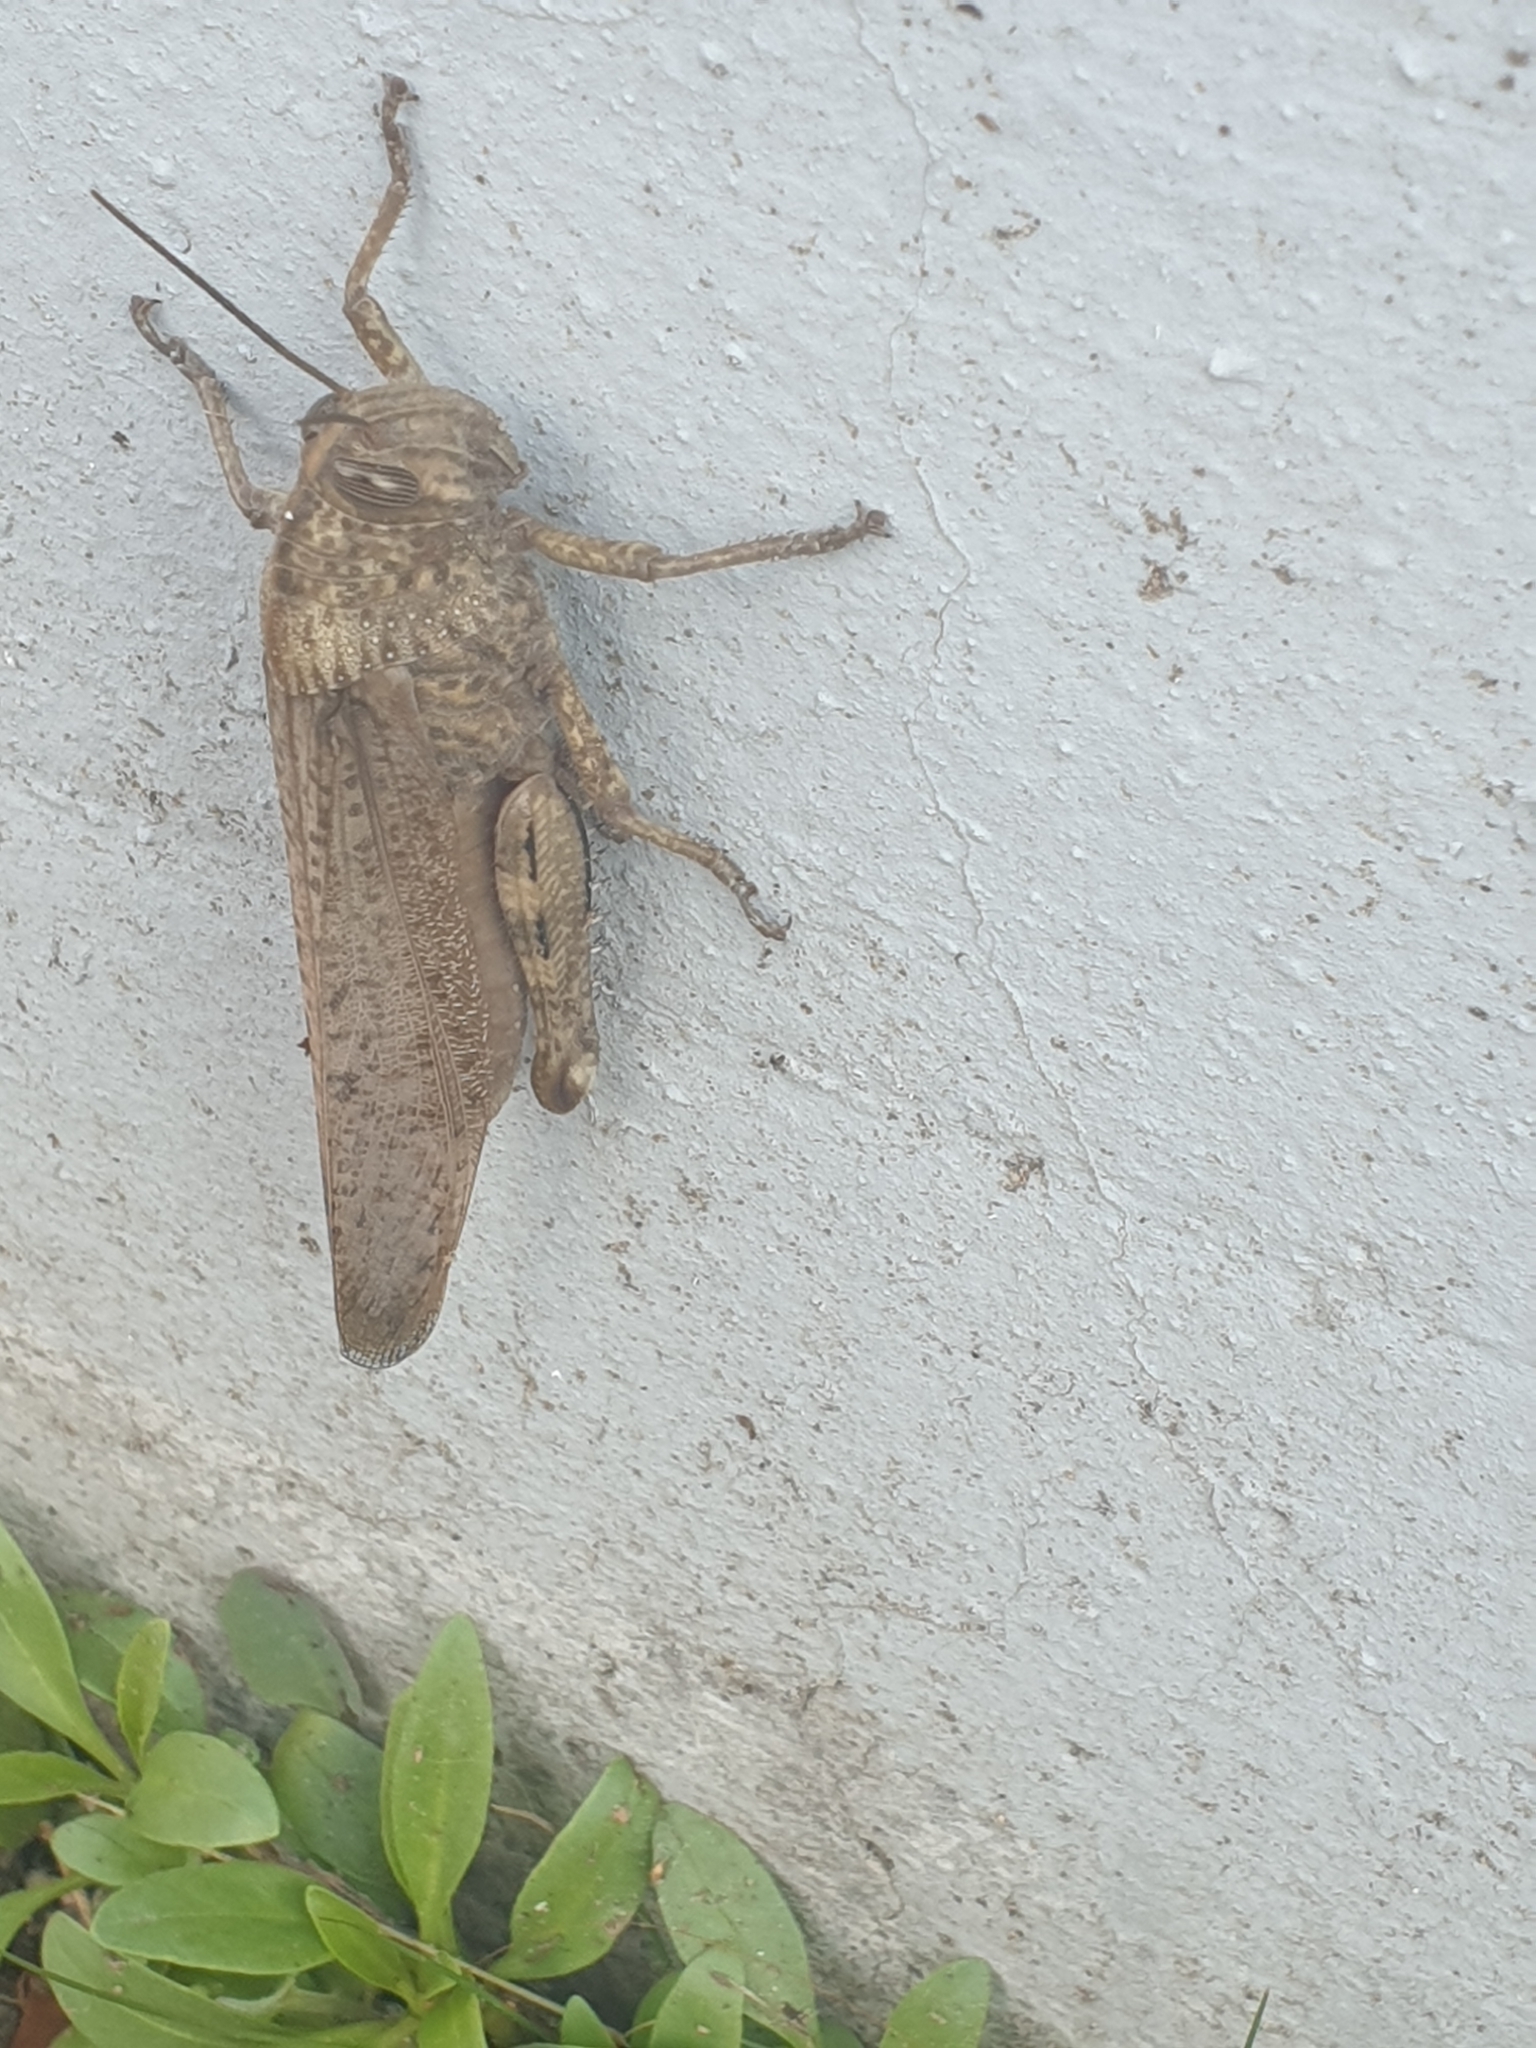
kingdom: Animalia
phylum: Arthropoda
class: Insecta
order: Orthoptera
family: Acrididae
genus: Anacridium
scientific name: Anacridium aegyptium
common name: Egyptian grasshopper
